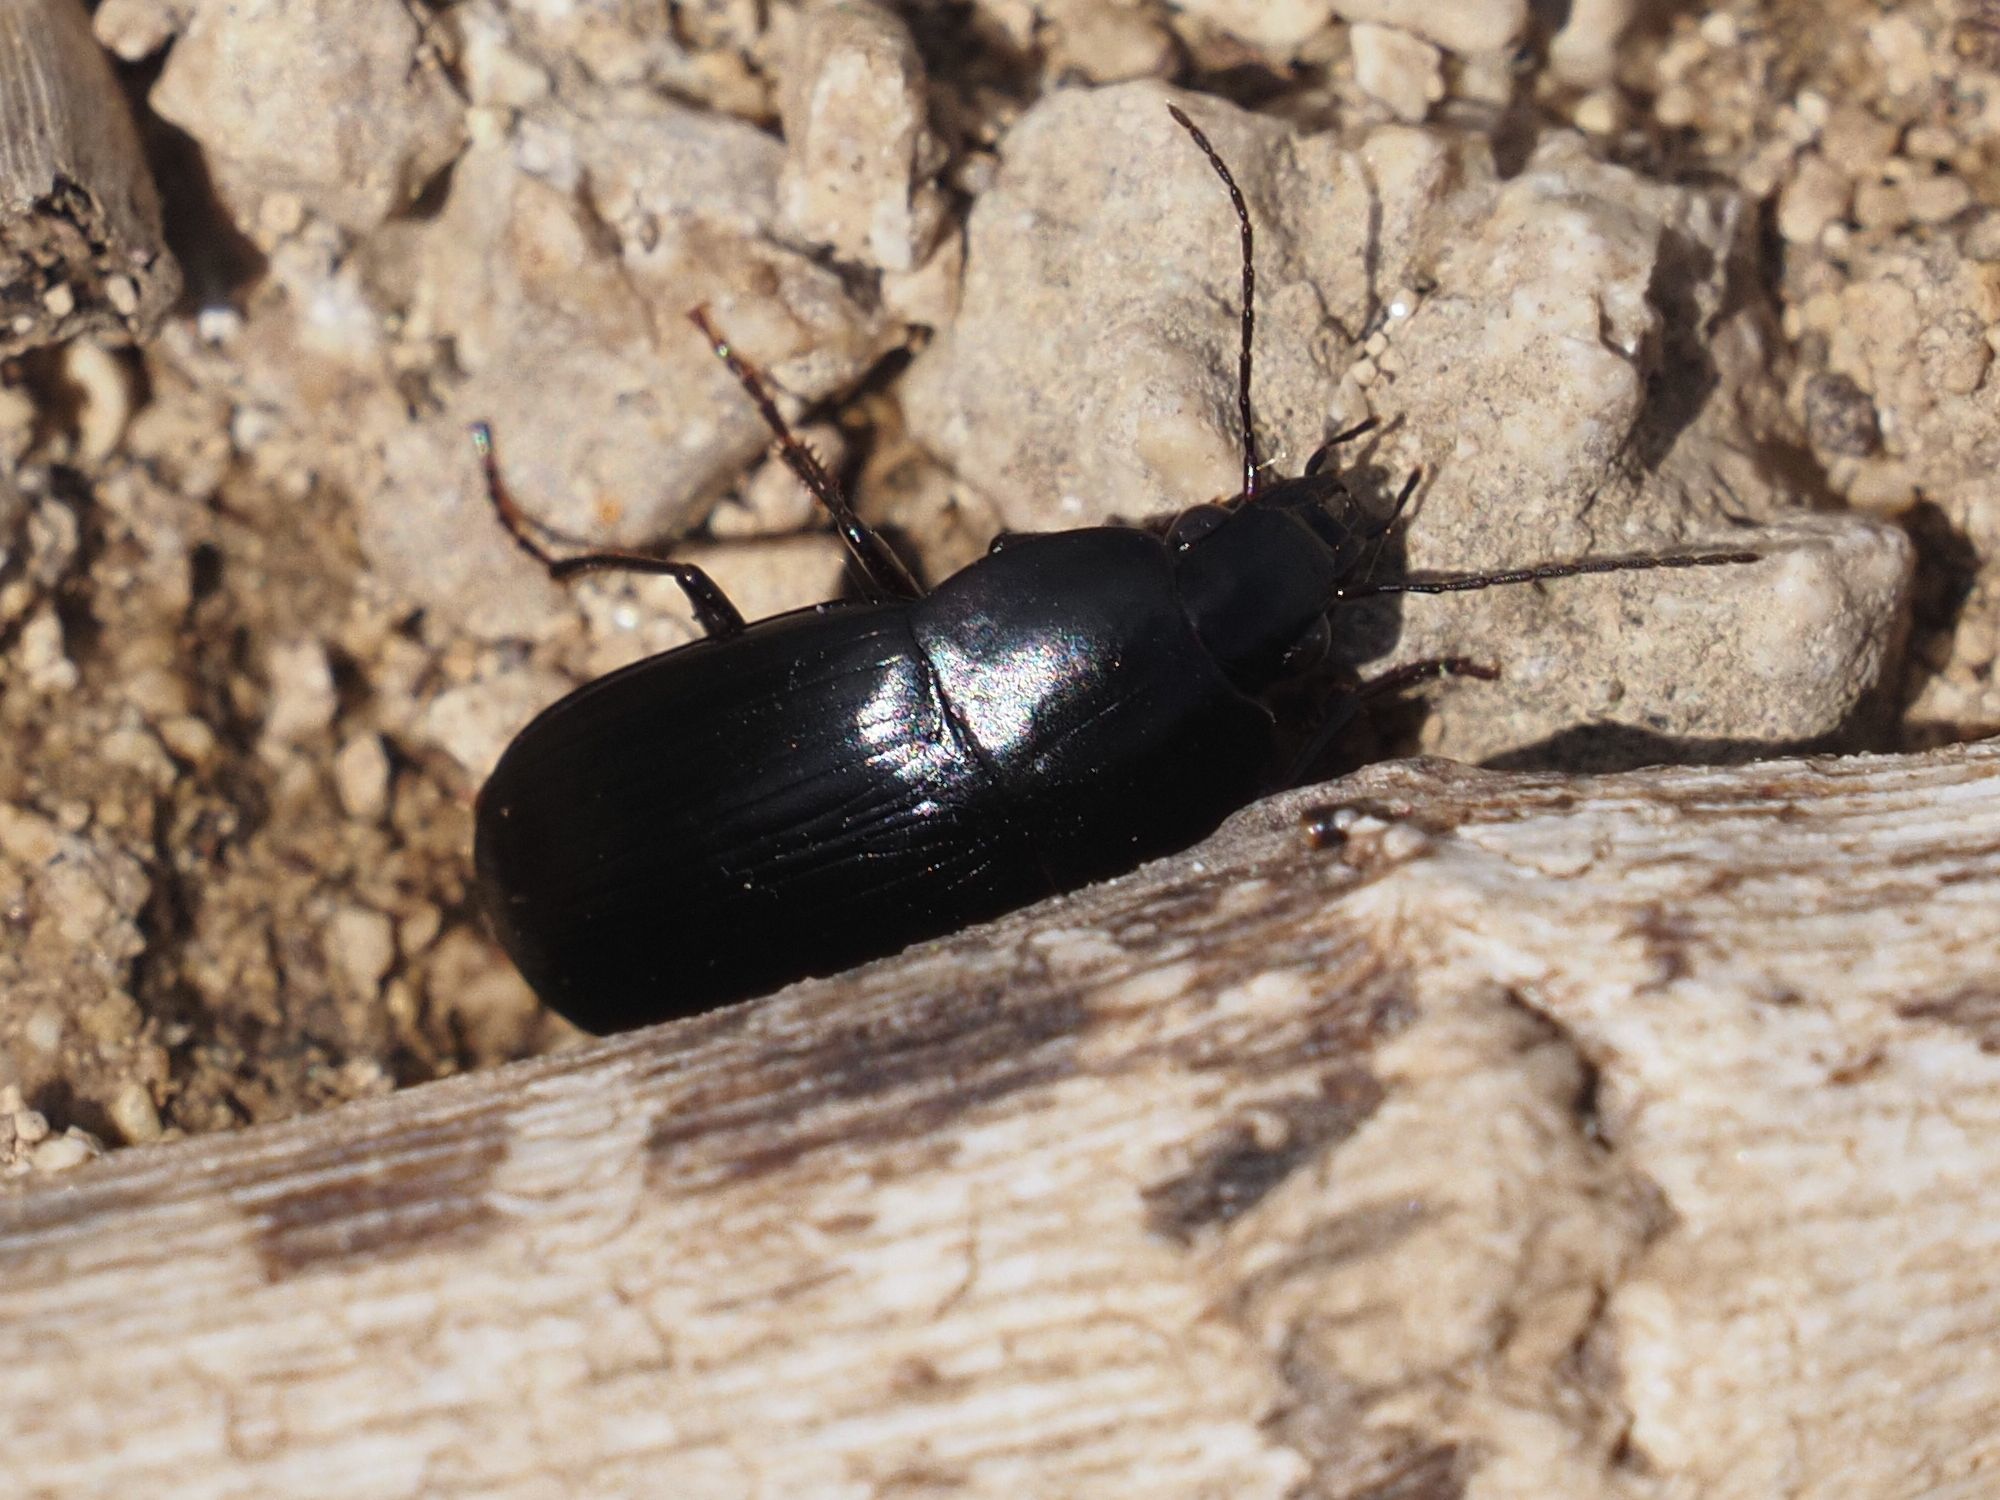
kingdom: Animalia
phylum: Arthropoda
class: Insecta
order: Coleoptera
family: Carabidae
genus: Oodes
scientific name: Oodes gracilis
